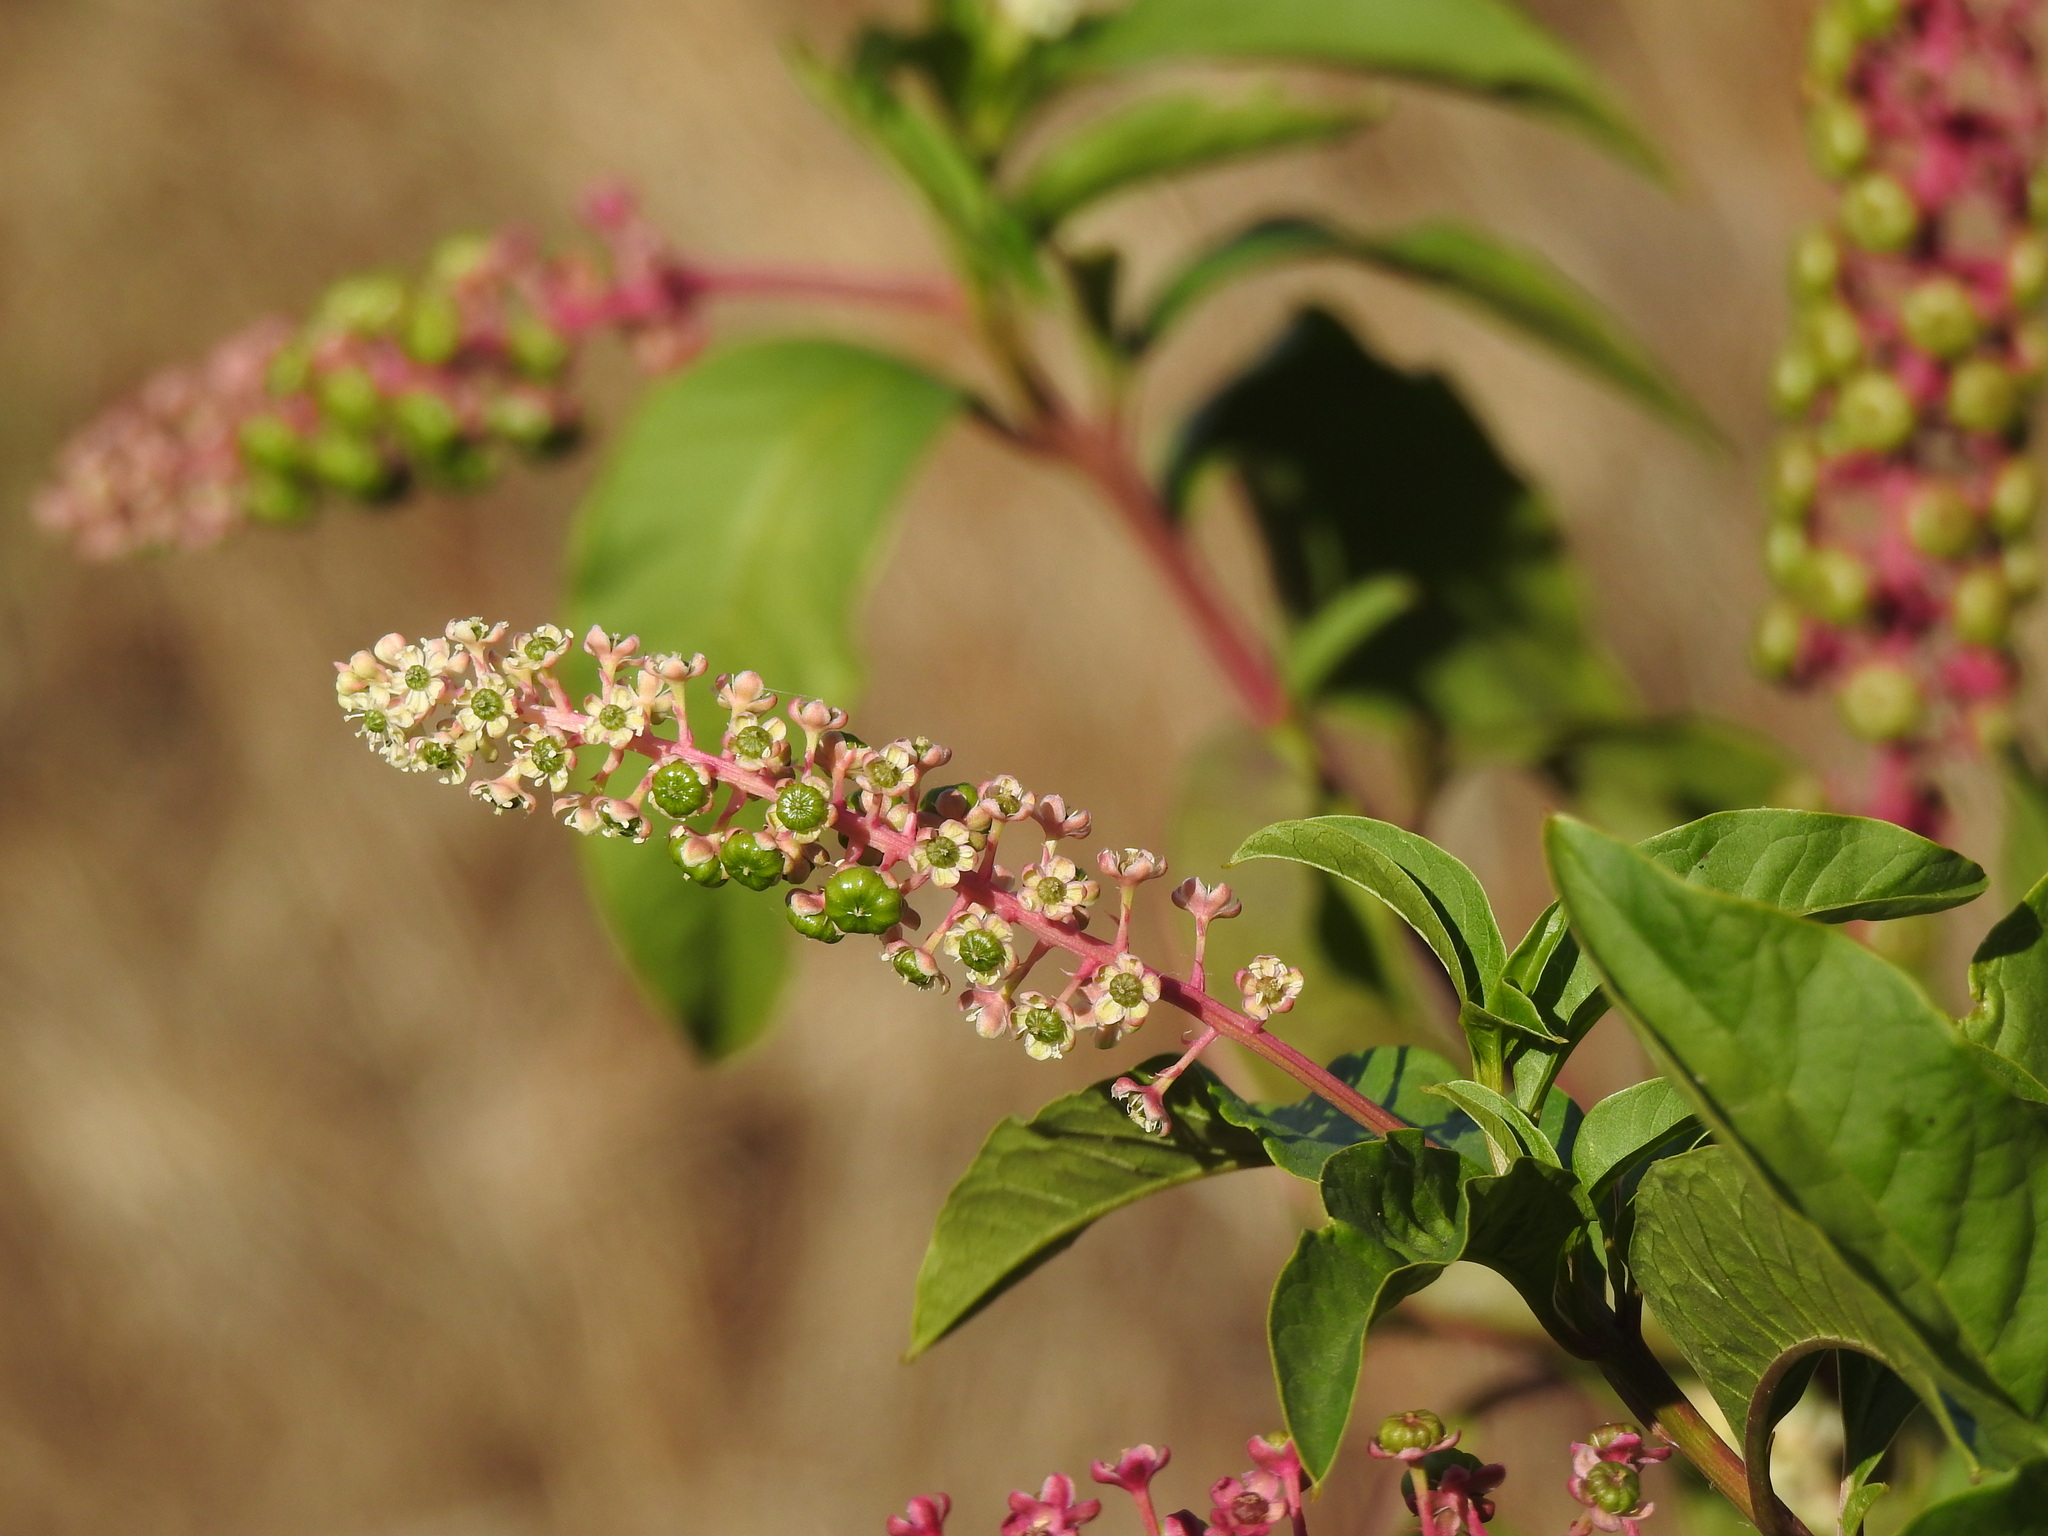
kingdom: Plantae
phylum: Tracheophyta
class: Magnoliopsida
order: Caryophyllales
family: Phytolaccaceae
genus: Phytolacca
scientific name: Phytolacca americana
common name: American pokeweed
